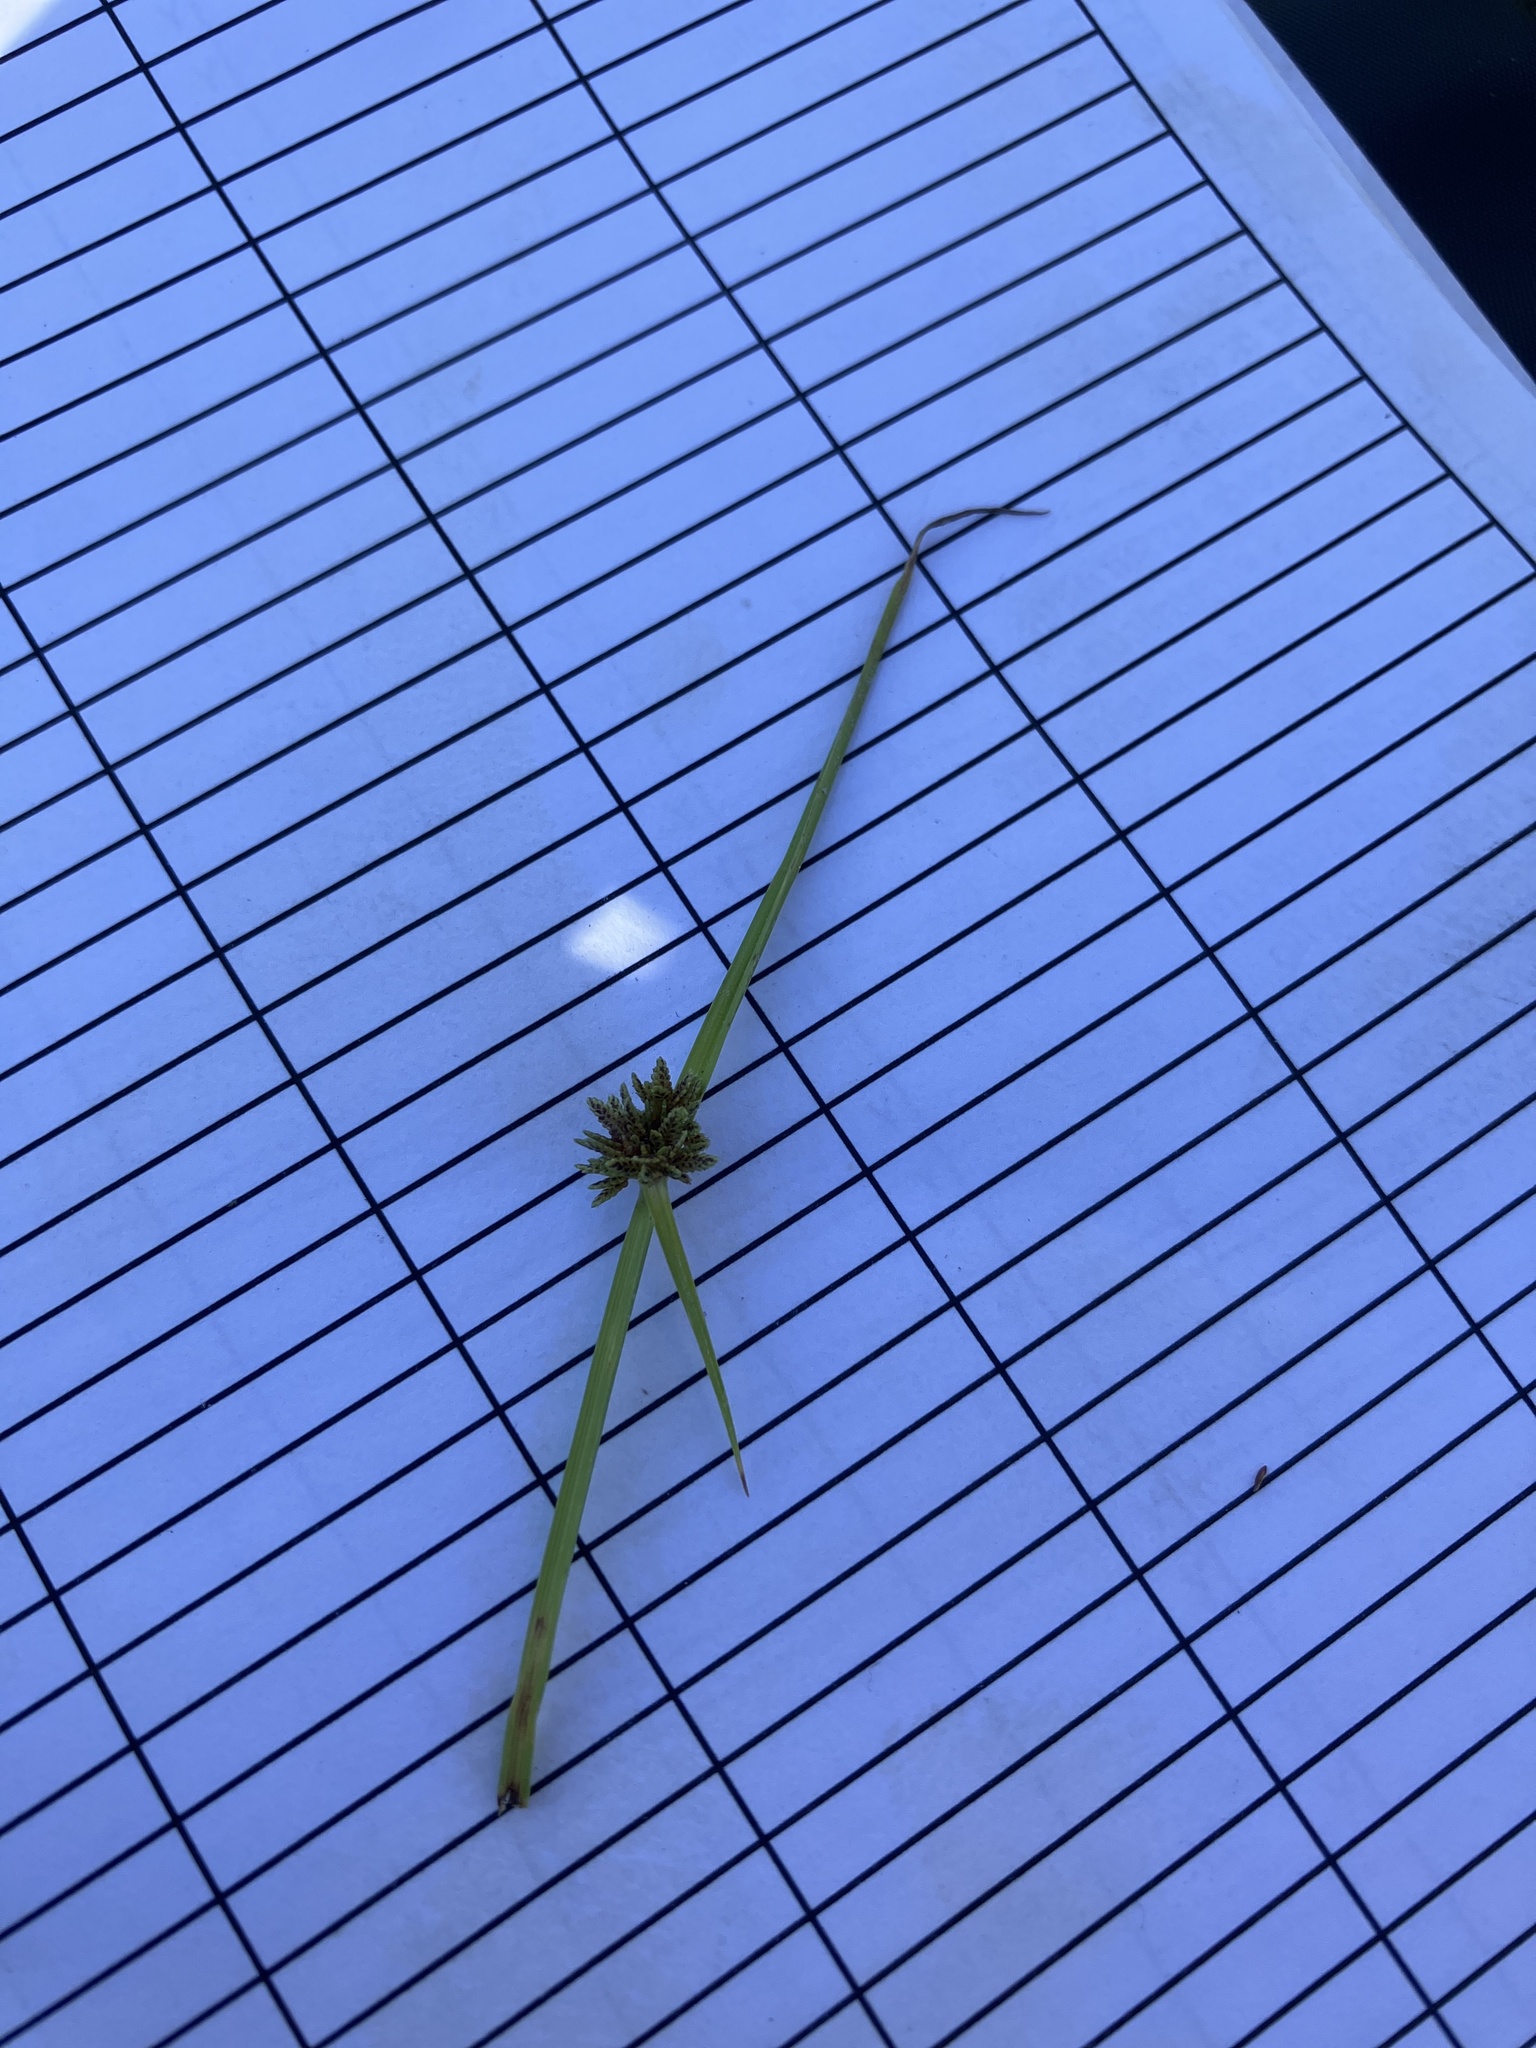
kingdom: Plantae
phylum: Tracheophyta
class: Liliopsida
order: Poales
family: Cyperaceae
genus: Cyperus
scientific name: Cyperus difformis
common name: Variable flatsedge
